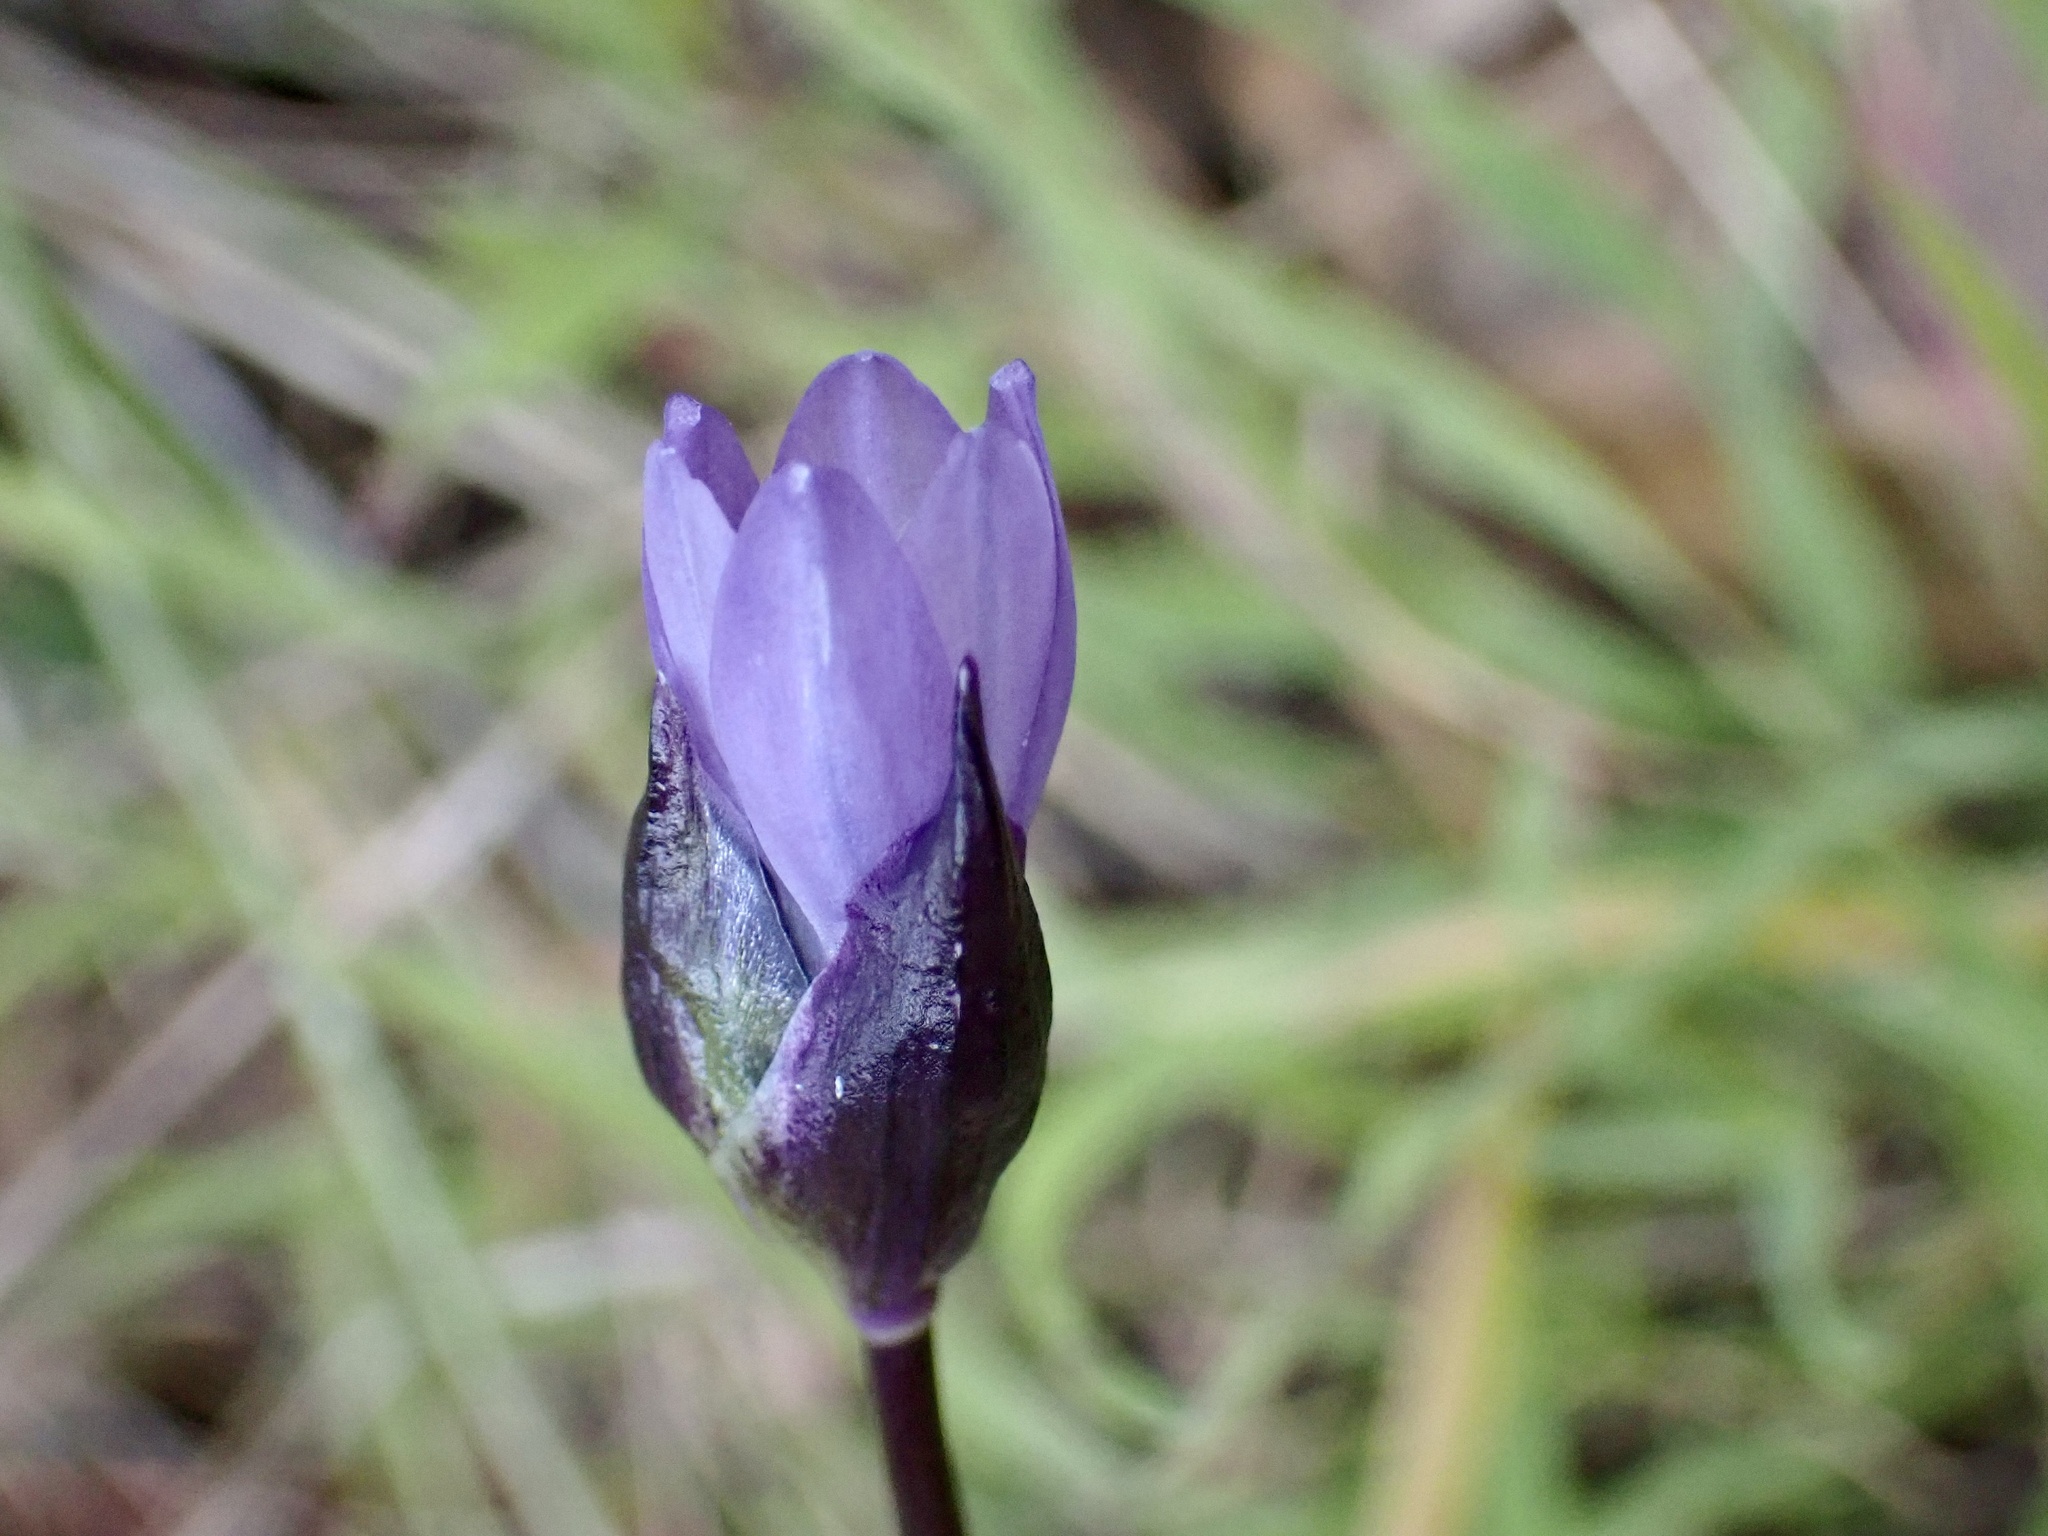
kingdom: Plantae
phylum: Tracheophyta
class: Liliopsida
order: Asparagales
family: Asparagaceae
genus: Dipterostemon
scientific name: Dipterostemon capitatus
